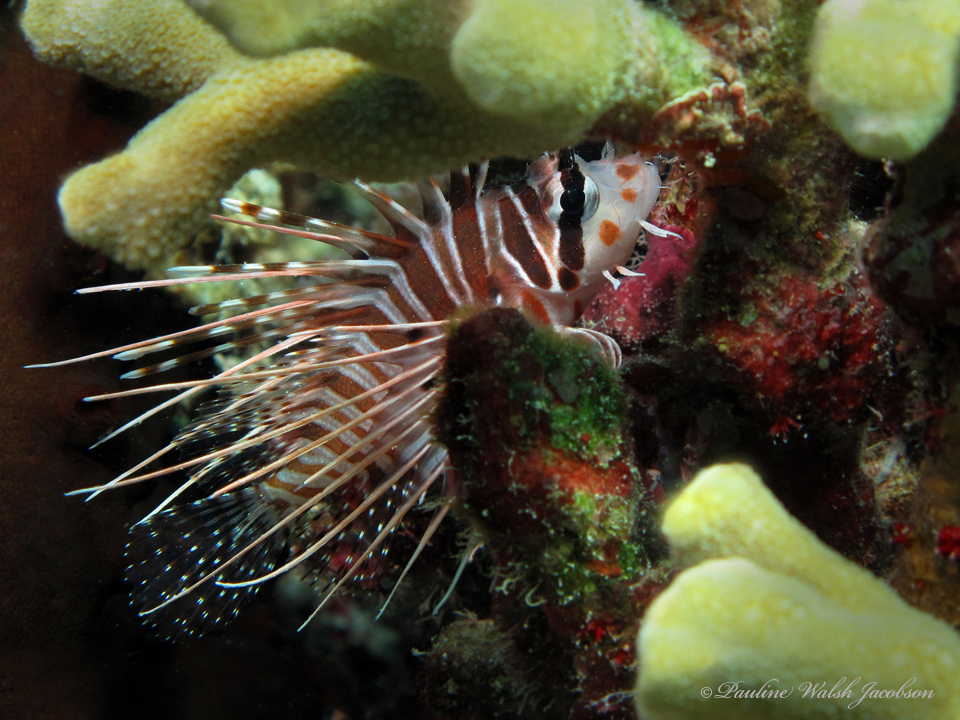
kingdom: Animalia
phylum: Chordata
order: Scorpaeniformes
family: Scorpaenidae
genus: Pterois
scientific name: Pterois antennata
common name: Spotfin lionfish
